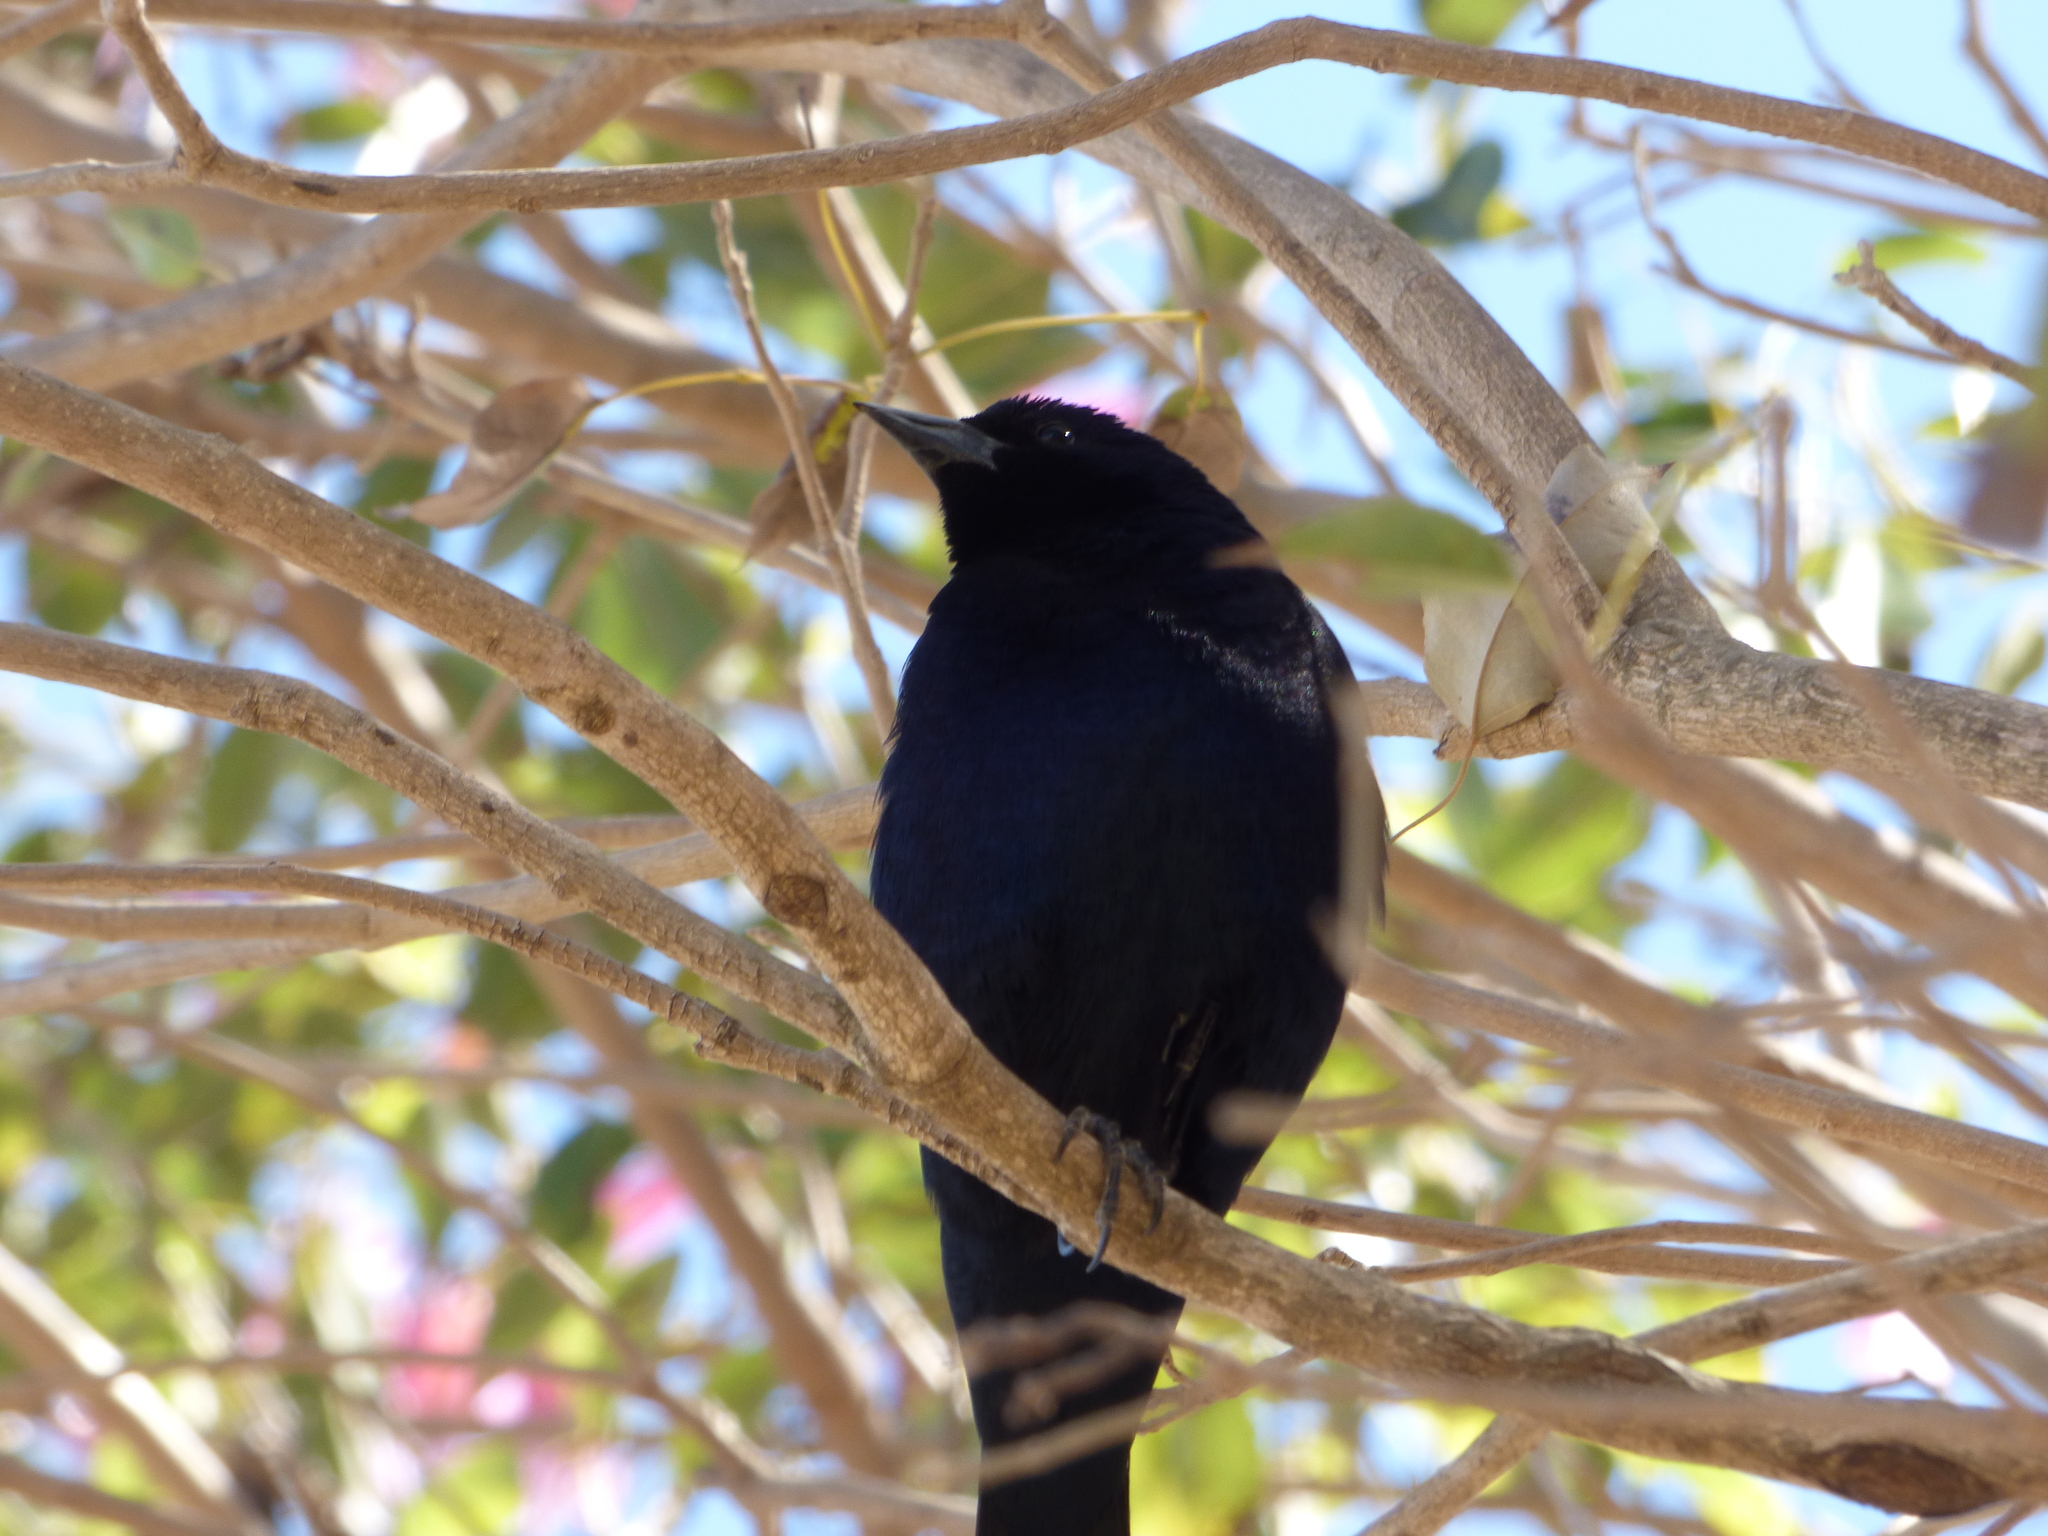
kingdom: Animalia
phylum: Chordata
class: Aves
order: Passeriformes
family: Icteridae
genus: Molothrus
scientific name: Molothrus bonariensis
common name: Shiny cowbird
